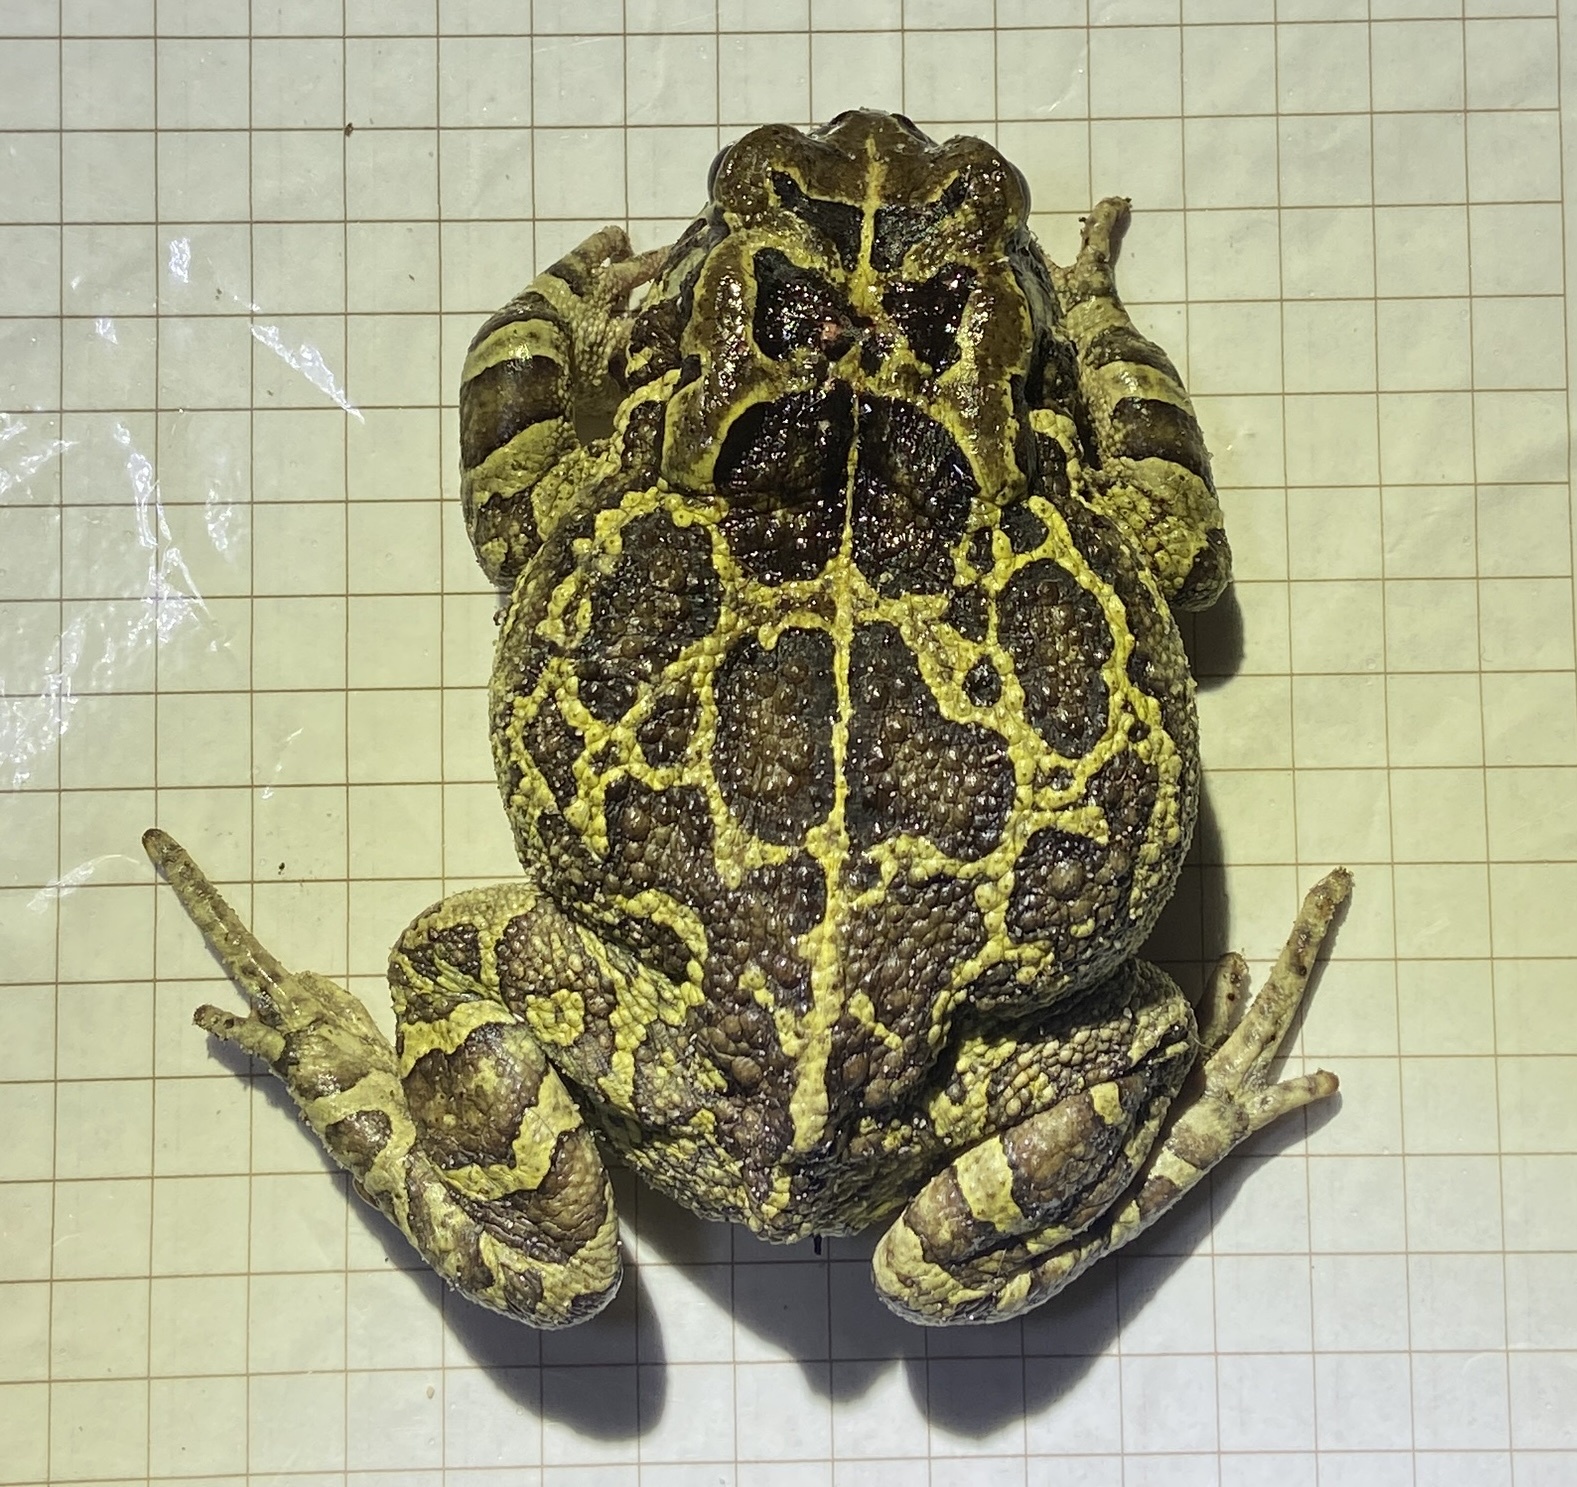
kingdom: Animalia
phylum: Chordata
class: Amphibia
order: Anura
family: Bufonidae
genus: Sclerophrys
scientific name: Sclerophrys pantherina
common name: Panther toad
